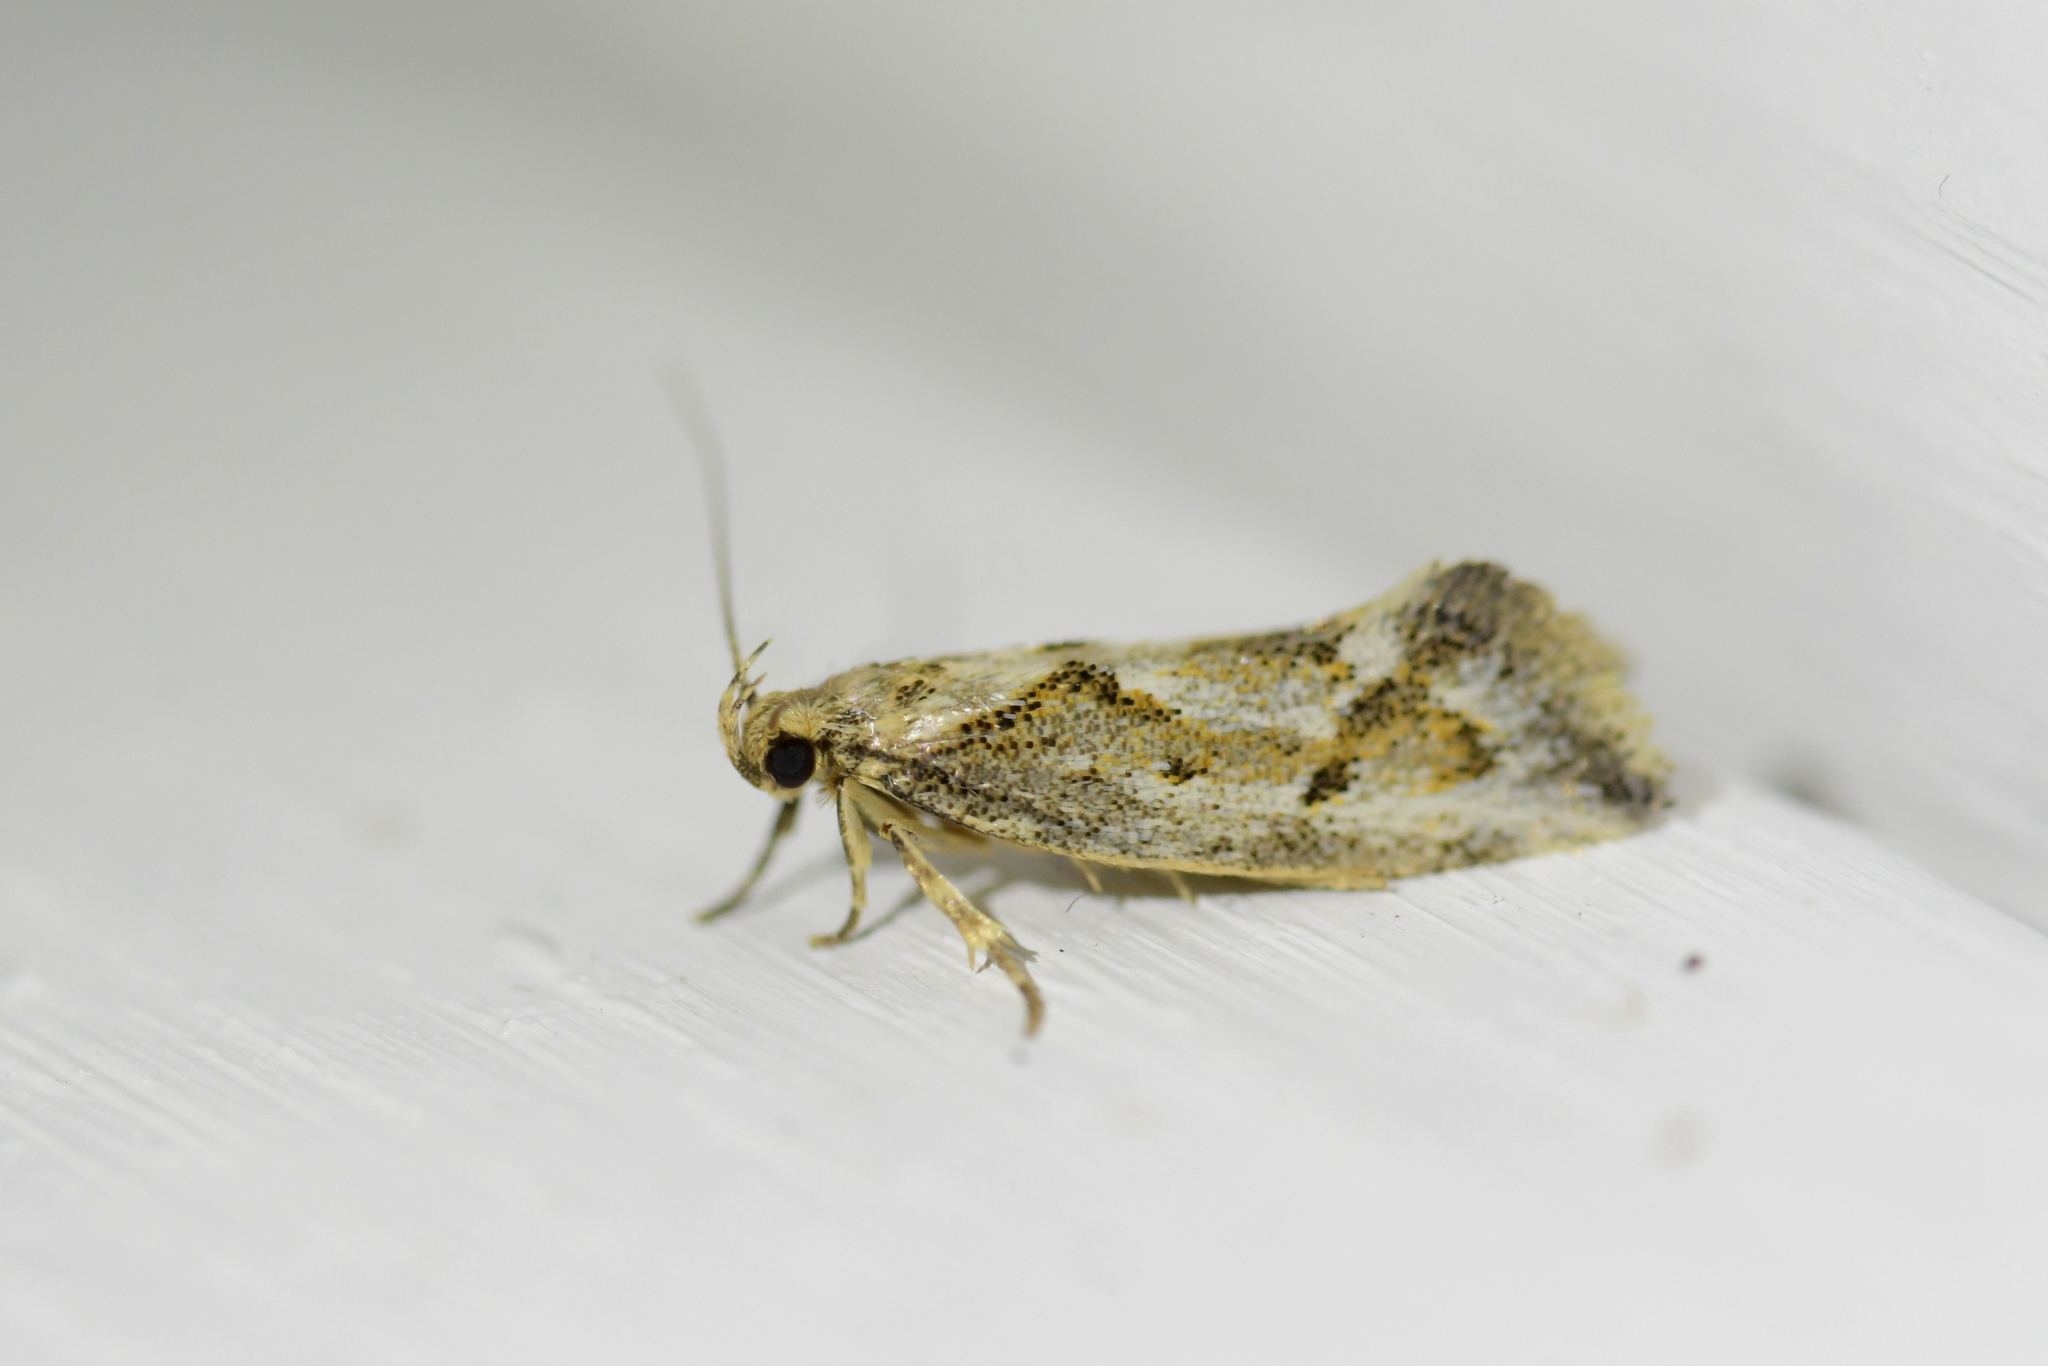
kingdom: Animalia
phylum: Arthropoda
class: Insecta
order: Lepidoptera
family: Oecophoridae
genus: Tingena
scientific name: Tingena hemimochla
